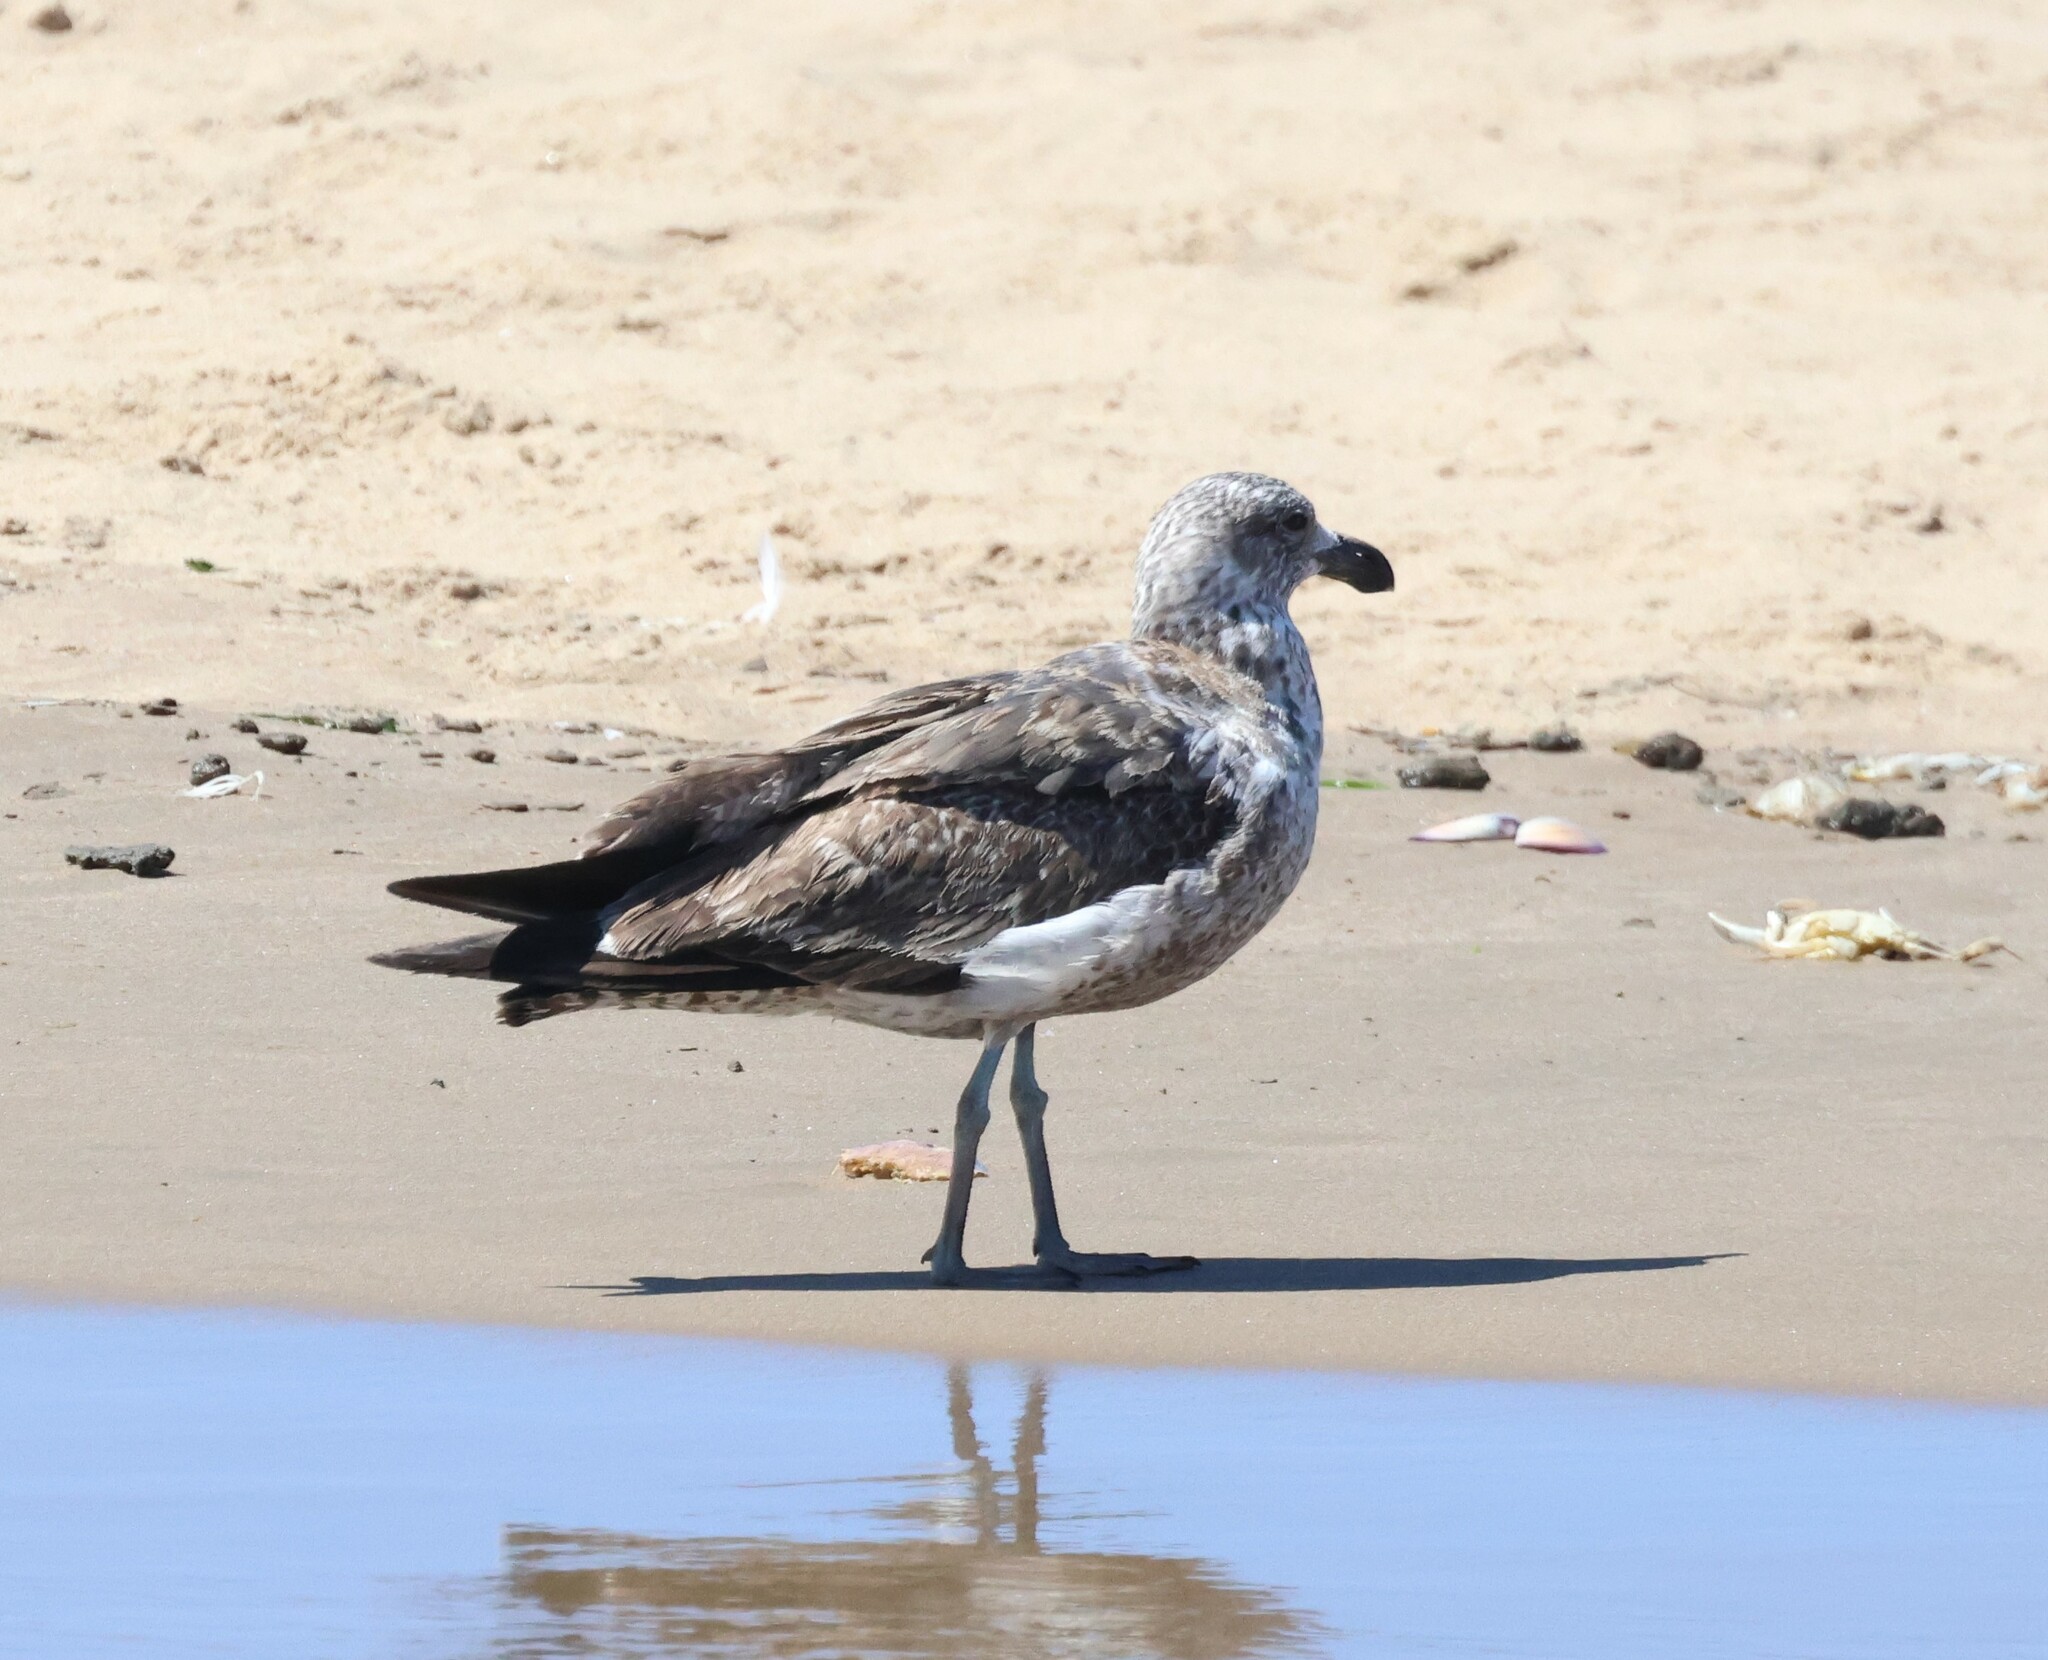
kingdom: Animalia
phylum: Chordata
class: Aves
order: Charadriiformes
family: Laridae
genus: Larus
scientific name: Larus dominicanus
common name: Kelp gull
